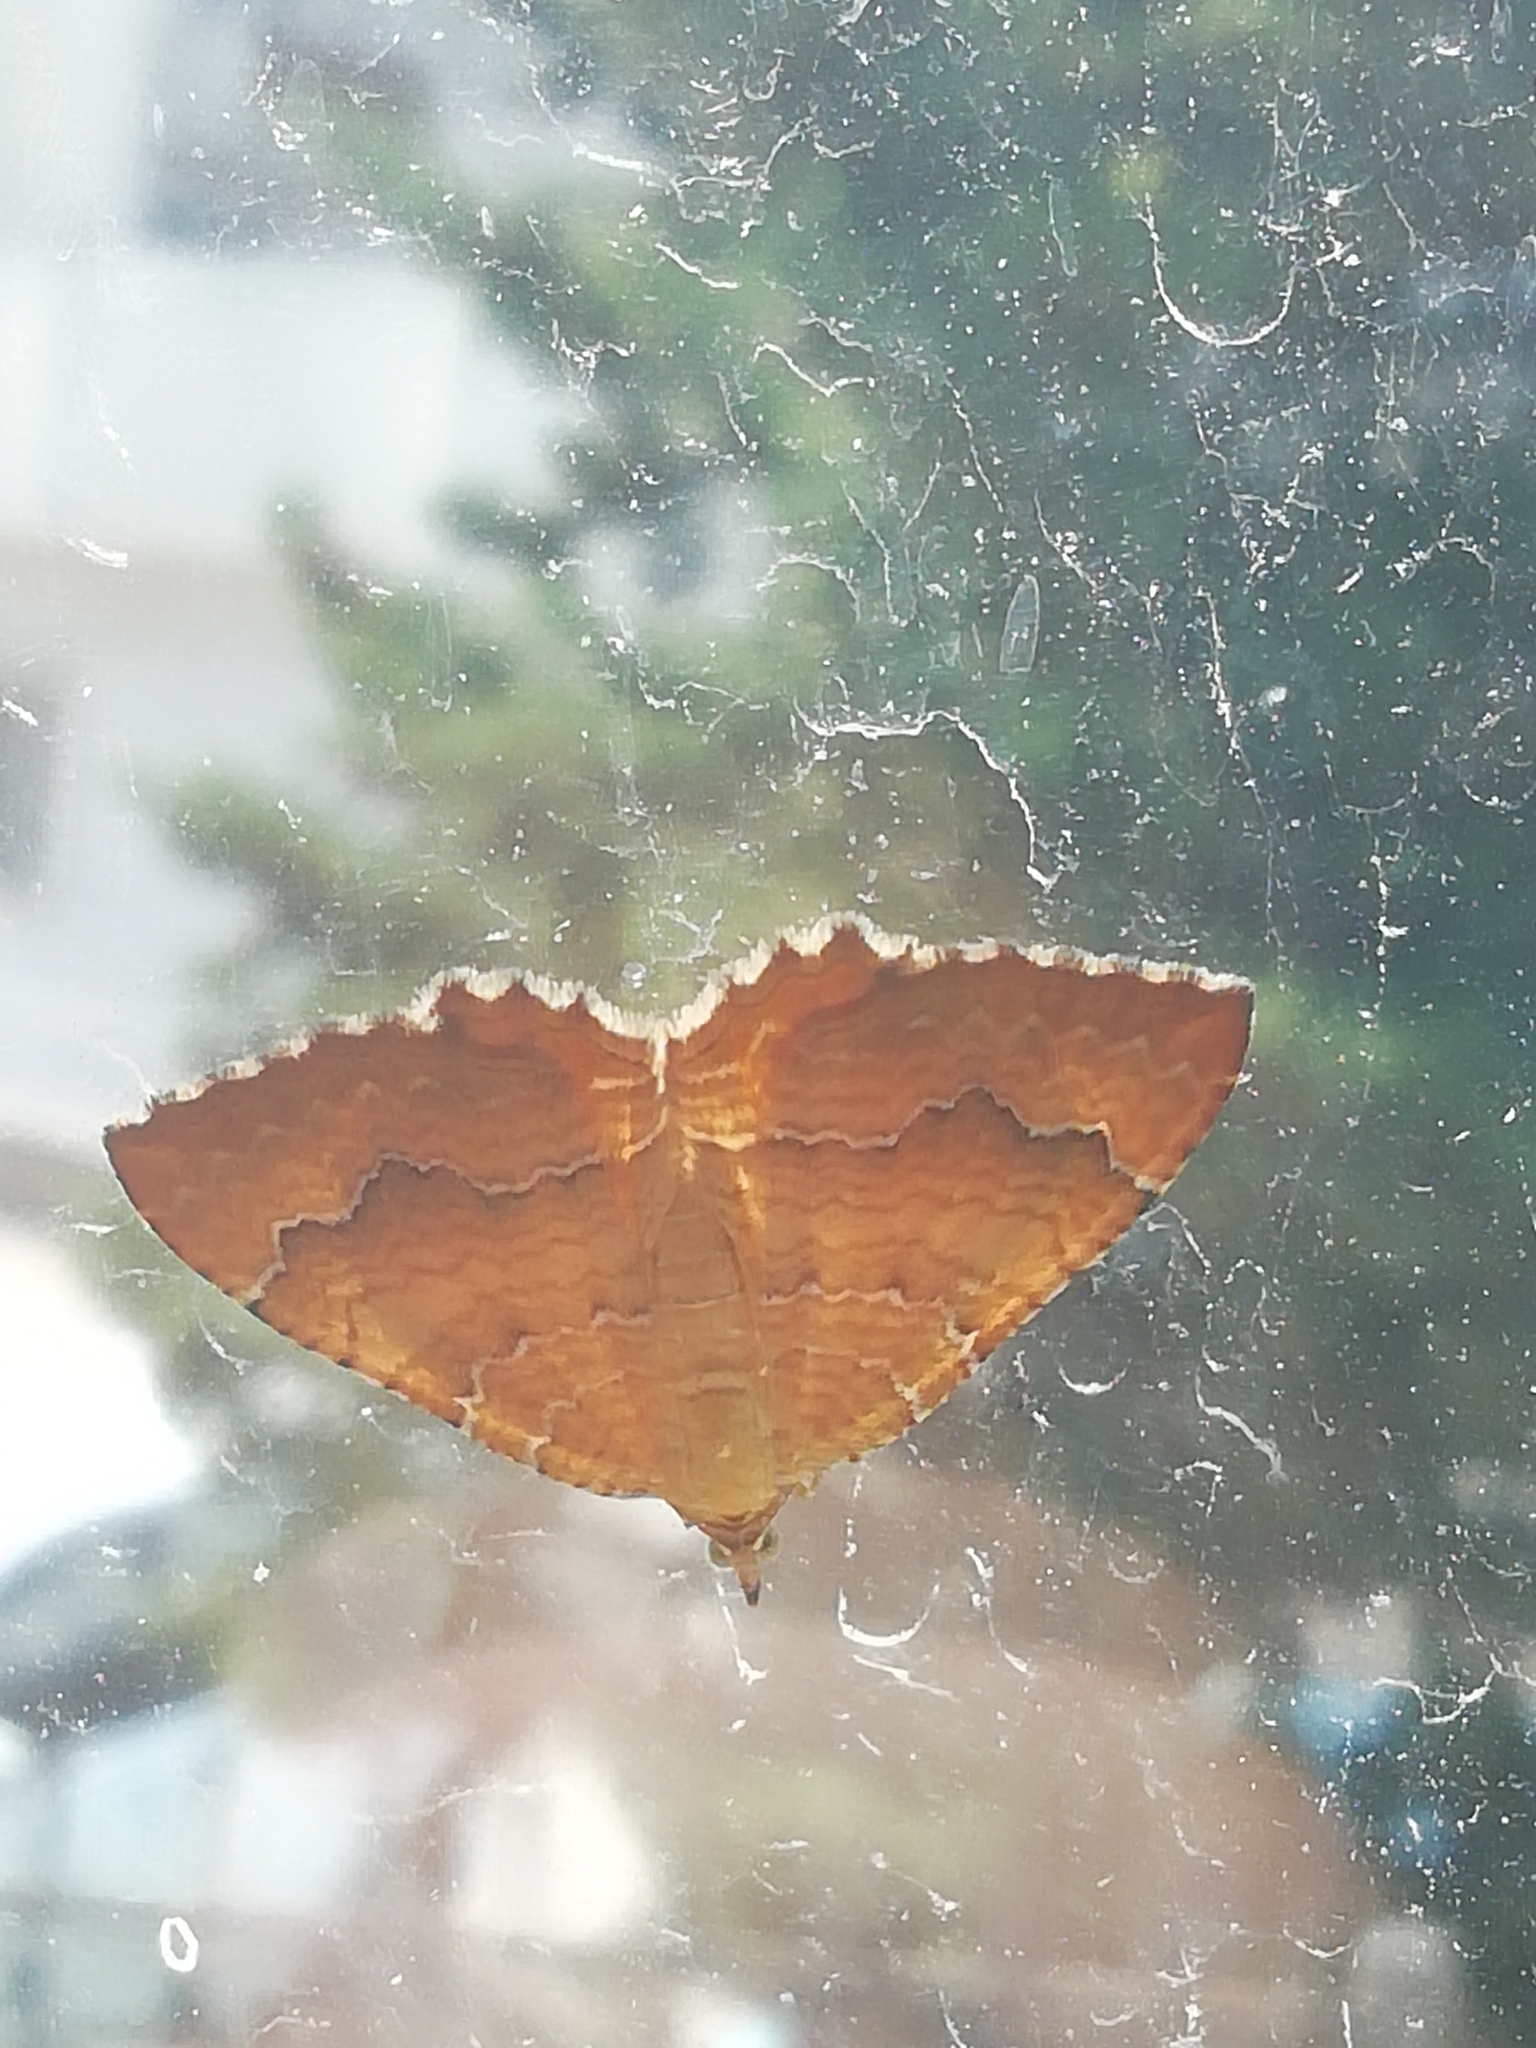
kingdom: Animalia
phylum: Arthropoda
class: Insecta
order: Lepidoptera
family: Geometridae
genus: Camptogramma
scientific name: Camptogramma bilineata
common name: Yellow shell
